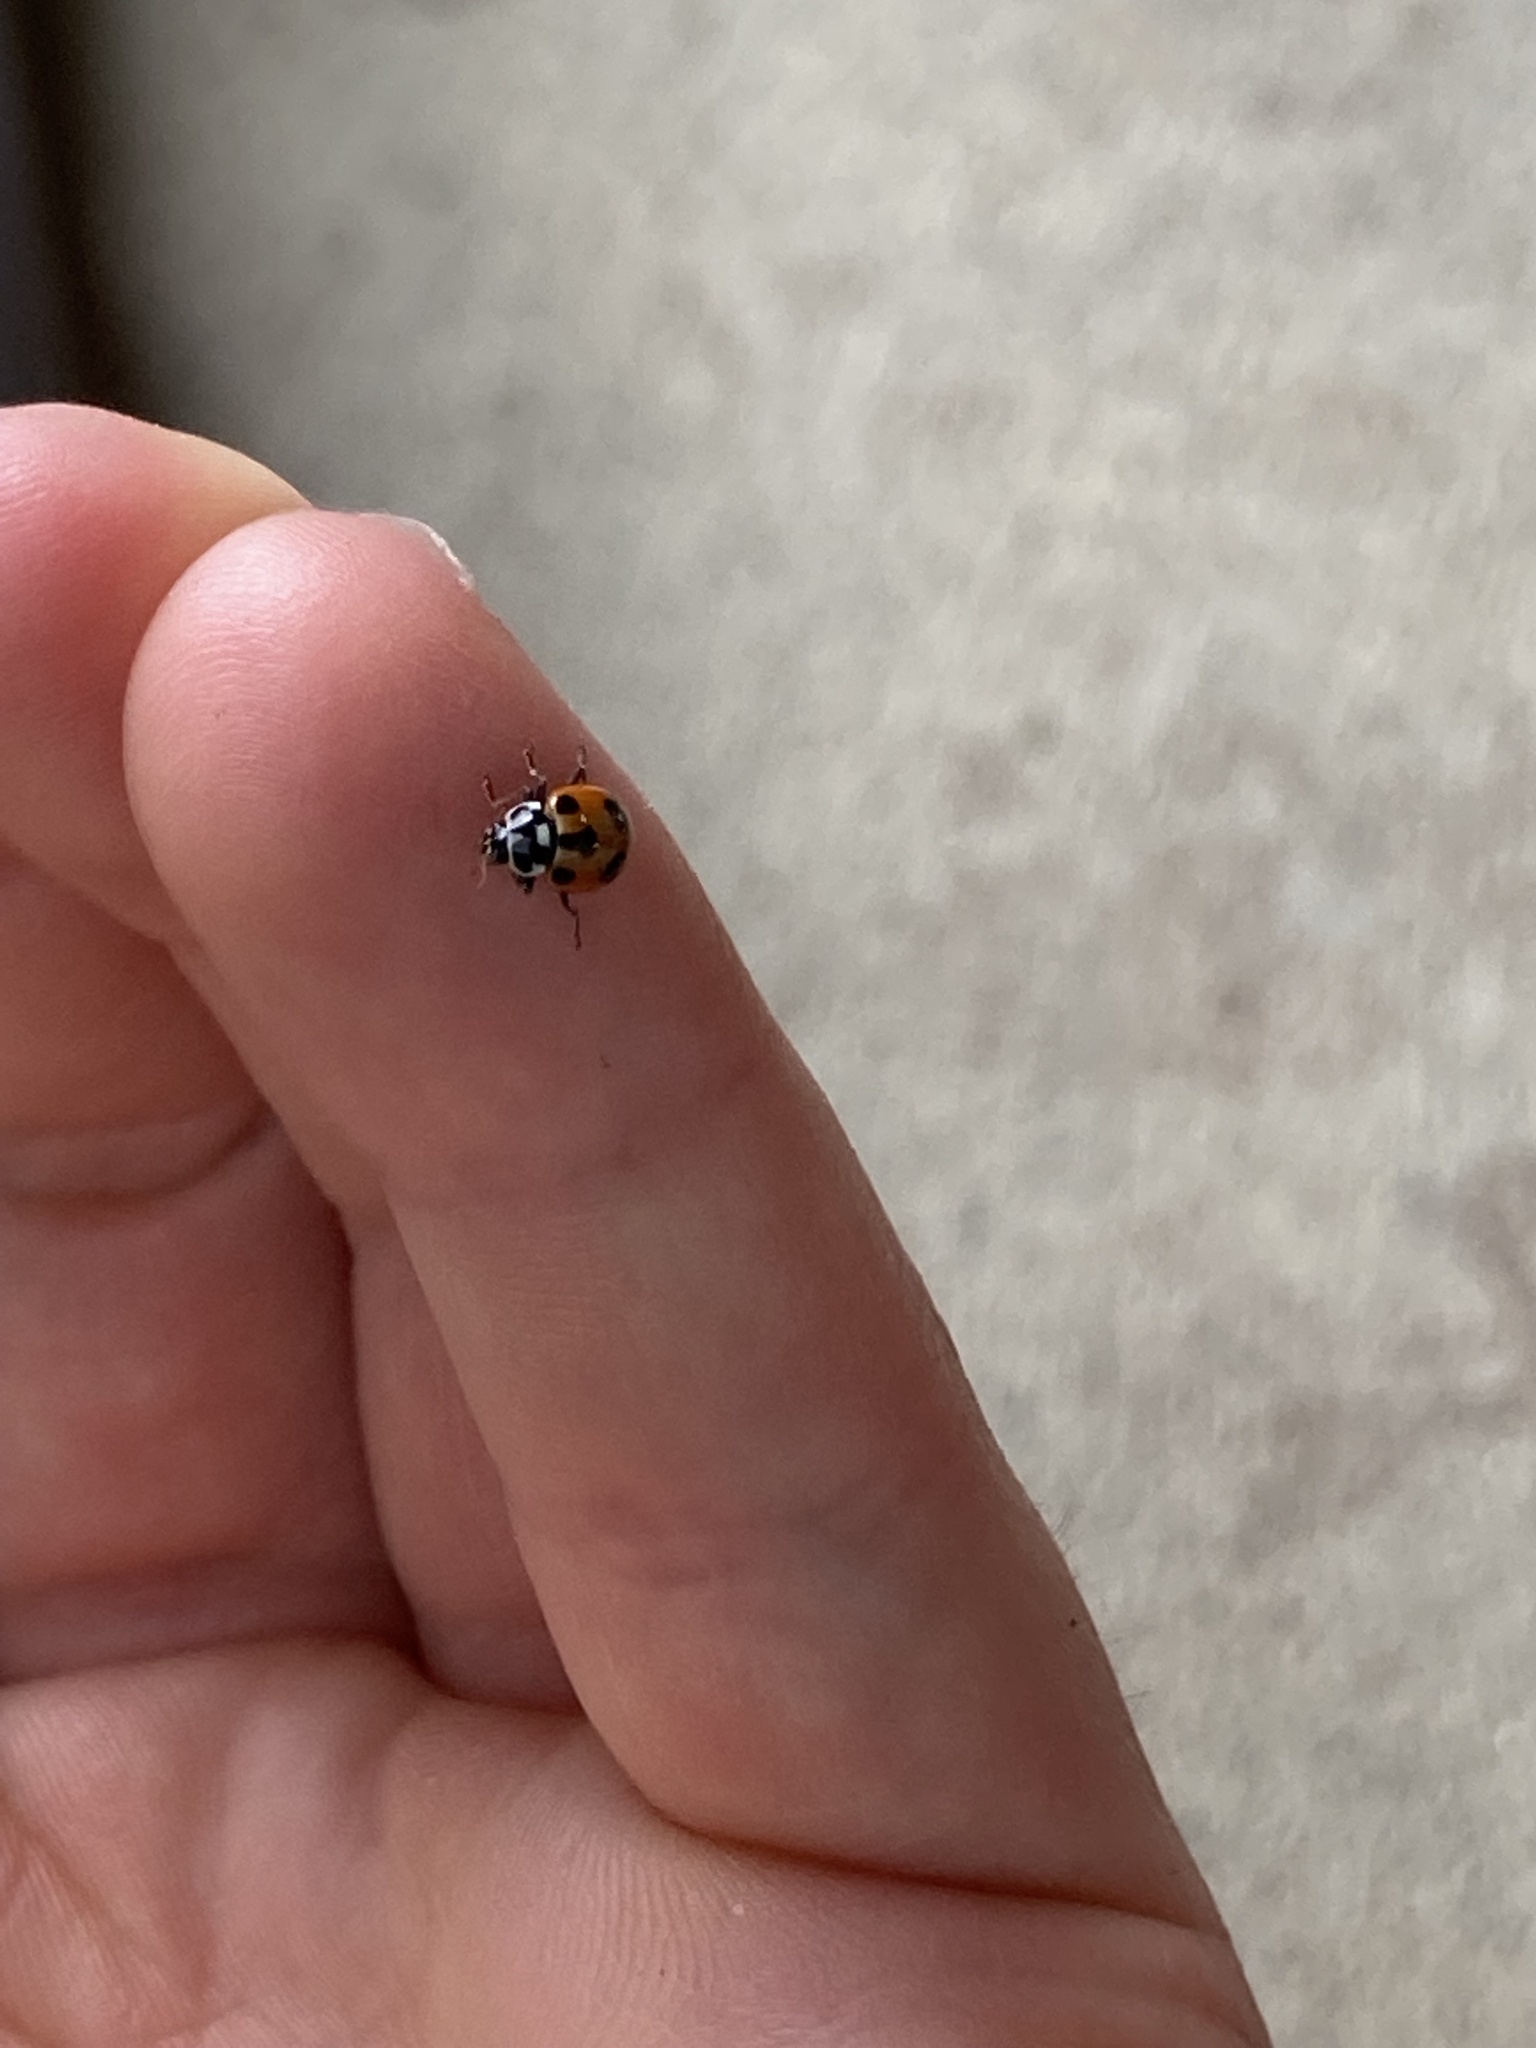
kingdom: Animalia
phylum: Arthropoda
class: Insecta
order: Coleoptera
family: Coccinellidae
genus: Hippodamia
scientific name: Hippodamia parenthesis
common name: Parenthesis lady beetle
